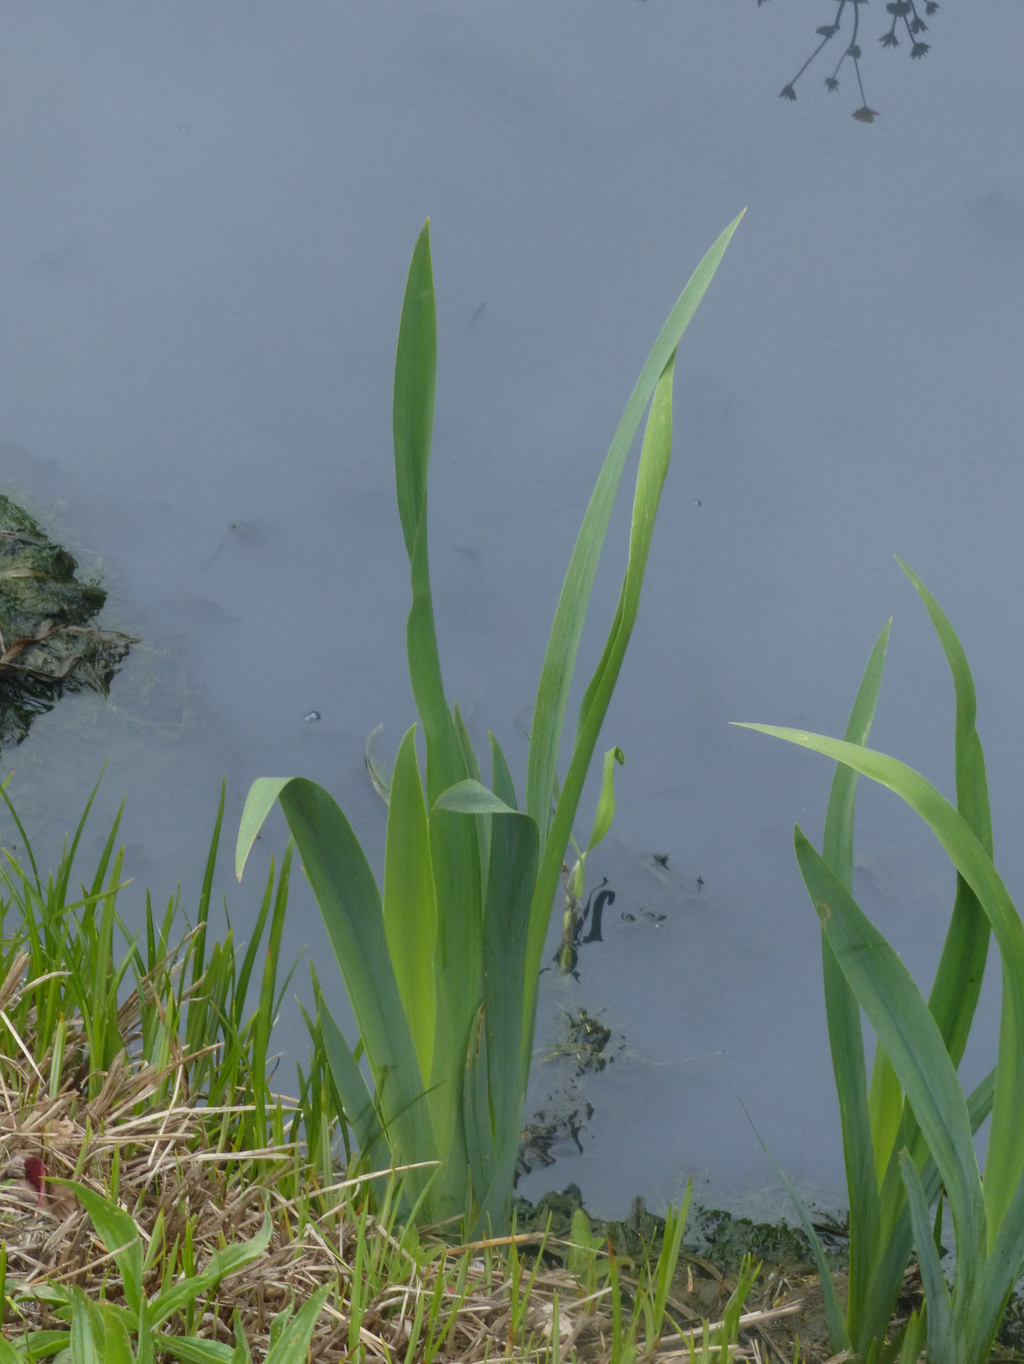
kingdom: Plantae
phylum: Tracheophyta
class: Liliopsida
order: Asparagales
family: Iridaceae
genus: Iris
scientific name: Iris pseudacorus
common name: Yellow flag
